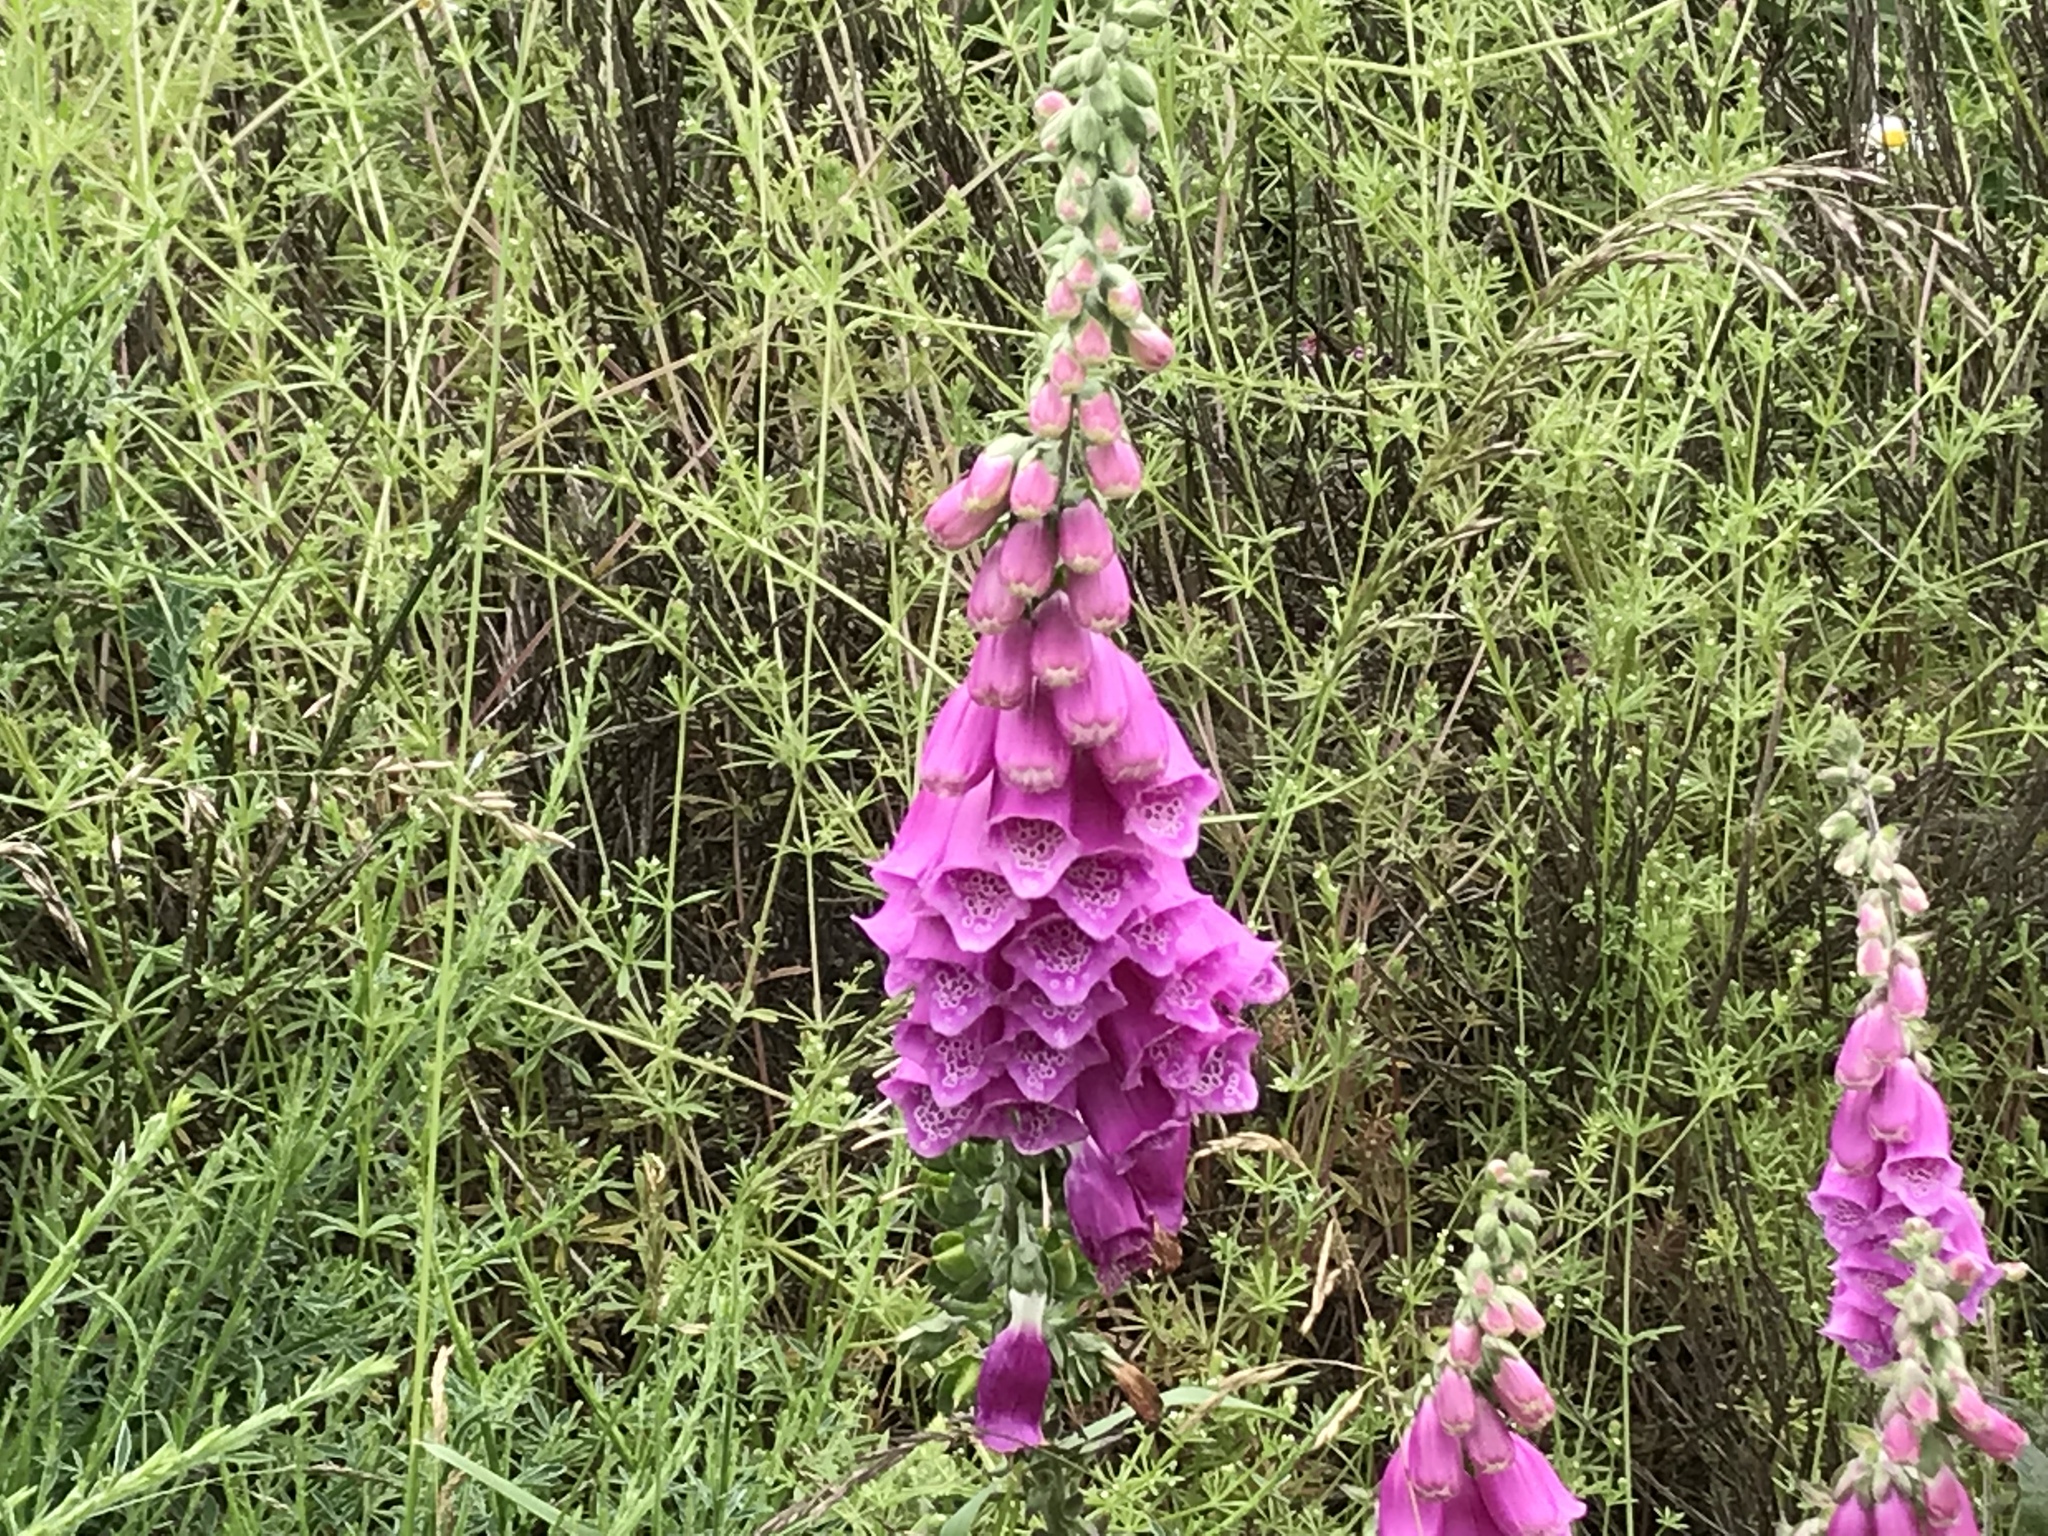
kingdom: Plantae
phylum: Tracheophyta
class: Magnoliopsida
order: Lamiales
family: Plantaginaceae
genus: Digitalis
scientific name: Digitalis purpurea
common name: Foxglove
